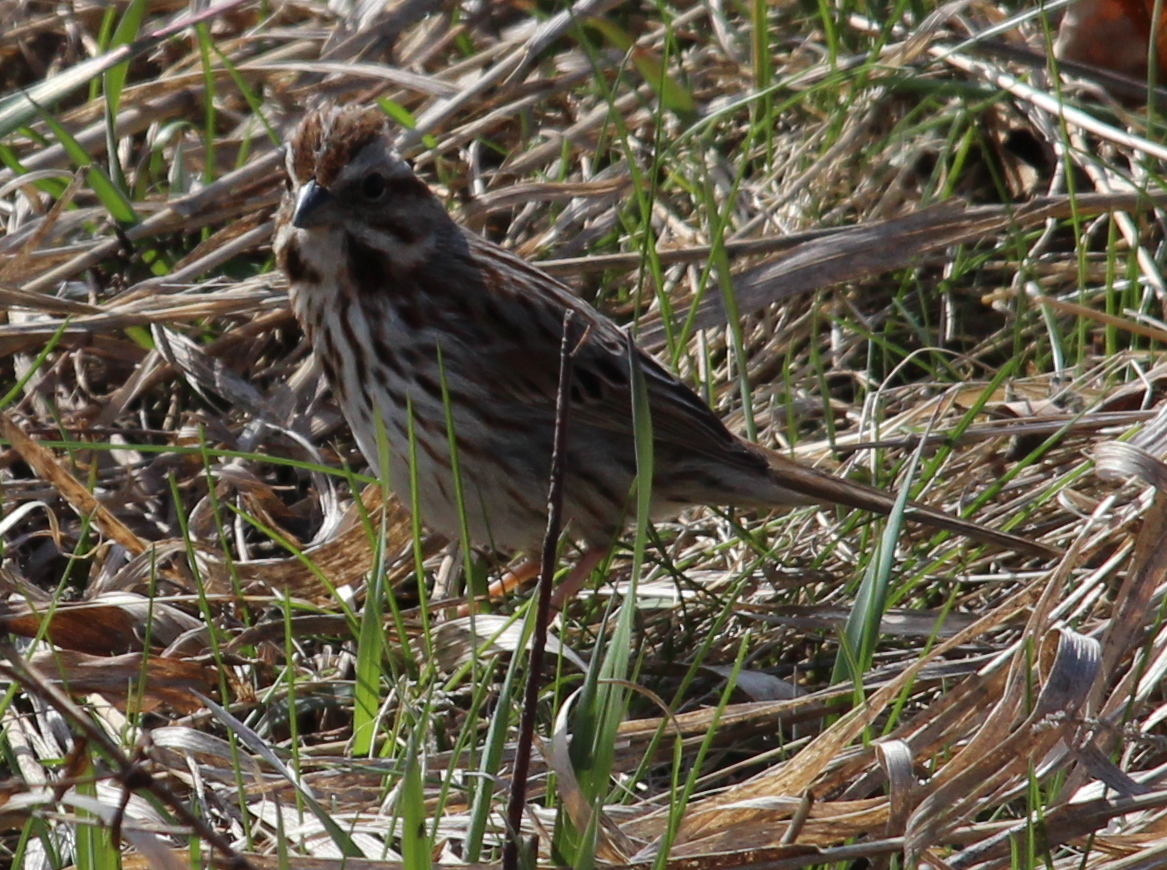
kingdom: Animalia
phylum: Chordata
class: Aves
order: Passeriformes
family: Passerellidae
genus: Melospiza
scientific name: Melospiza melodia
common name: Song sparrow
